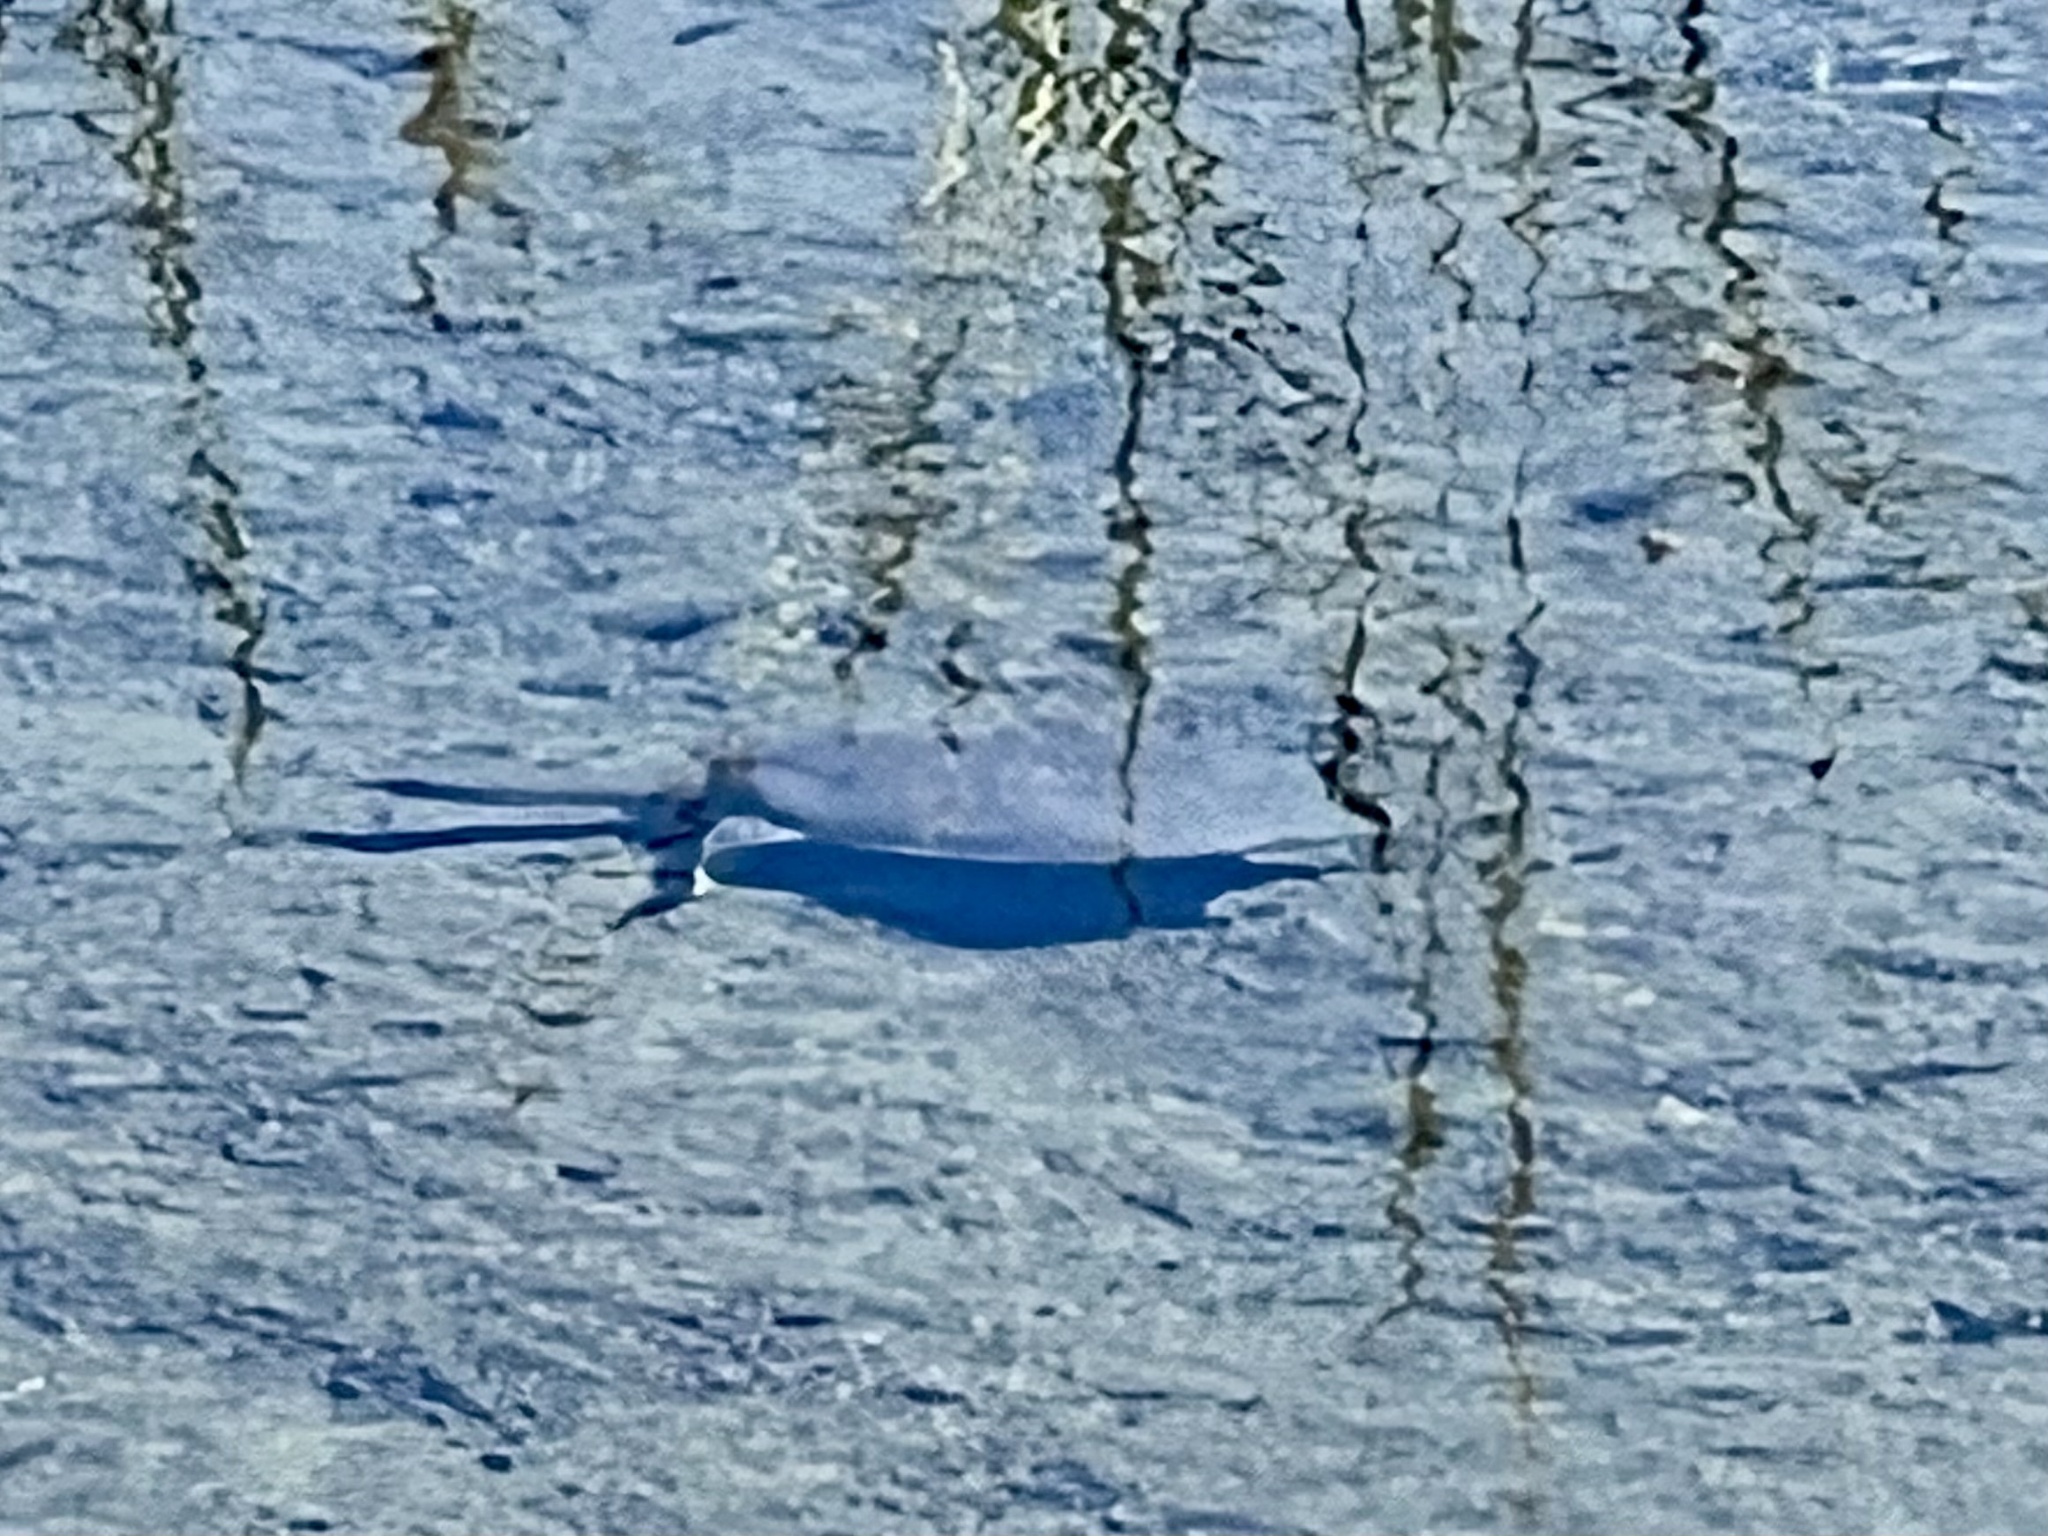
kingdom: Animalia
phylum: Chordata
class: Testudines
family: Trionychidae
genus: Apalone
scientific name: Apalone spinifera
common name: Spiny softshell turtle
